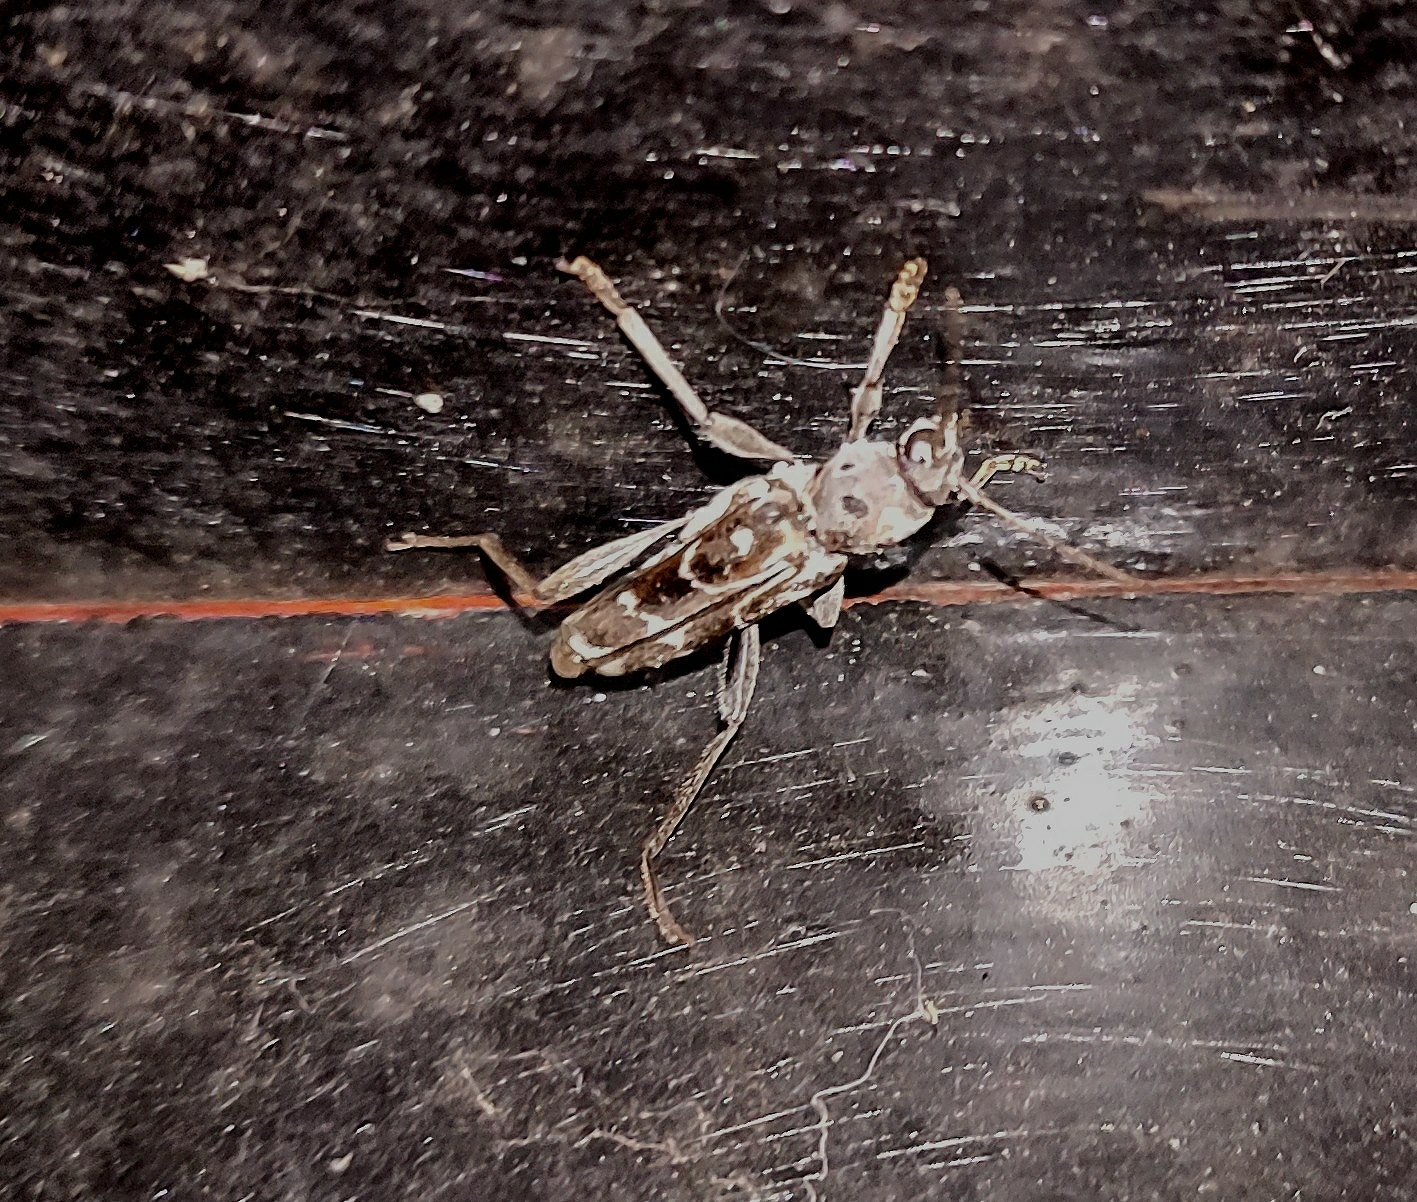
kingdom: Animalia
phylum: Arthropoda
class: Insecta
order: Coleoptera
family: Cerambycidae
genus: Xylotrechus
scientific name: Xylotrechus smei
